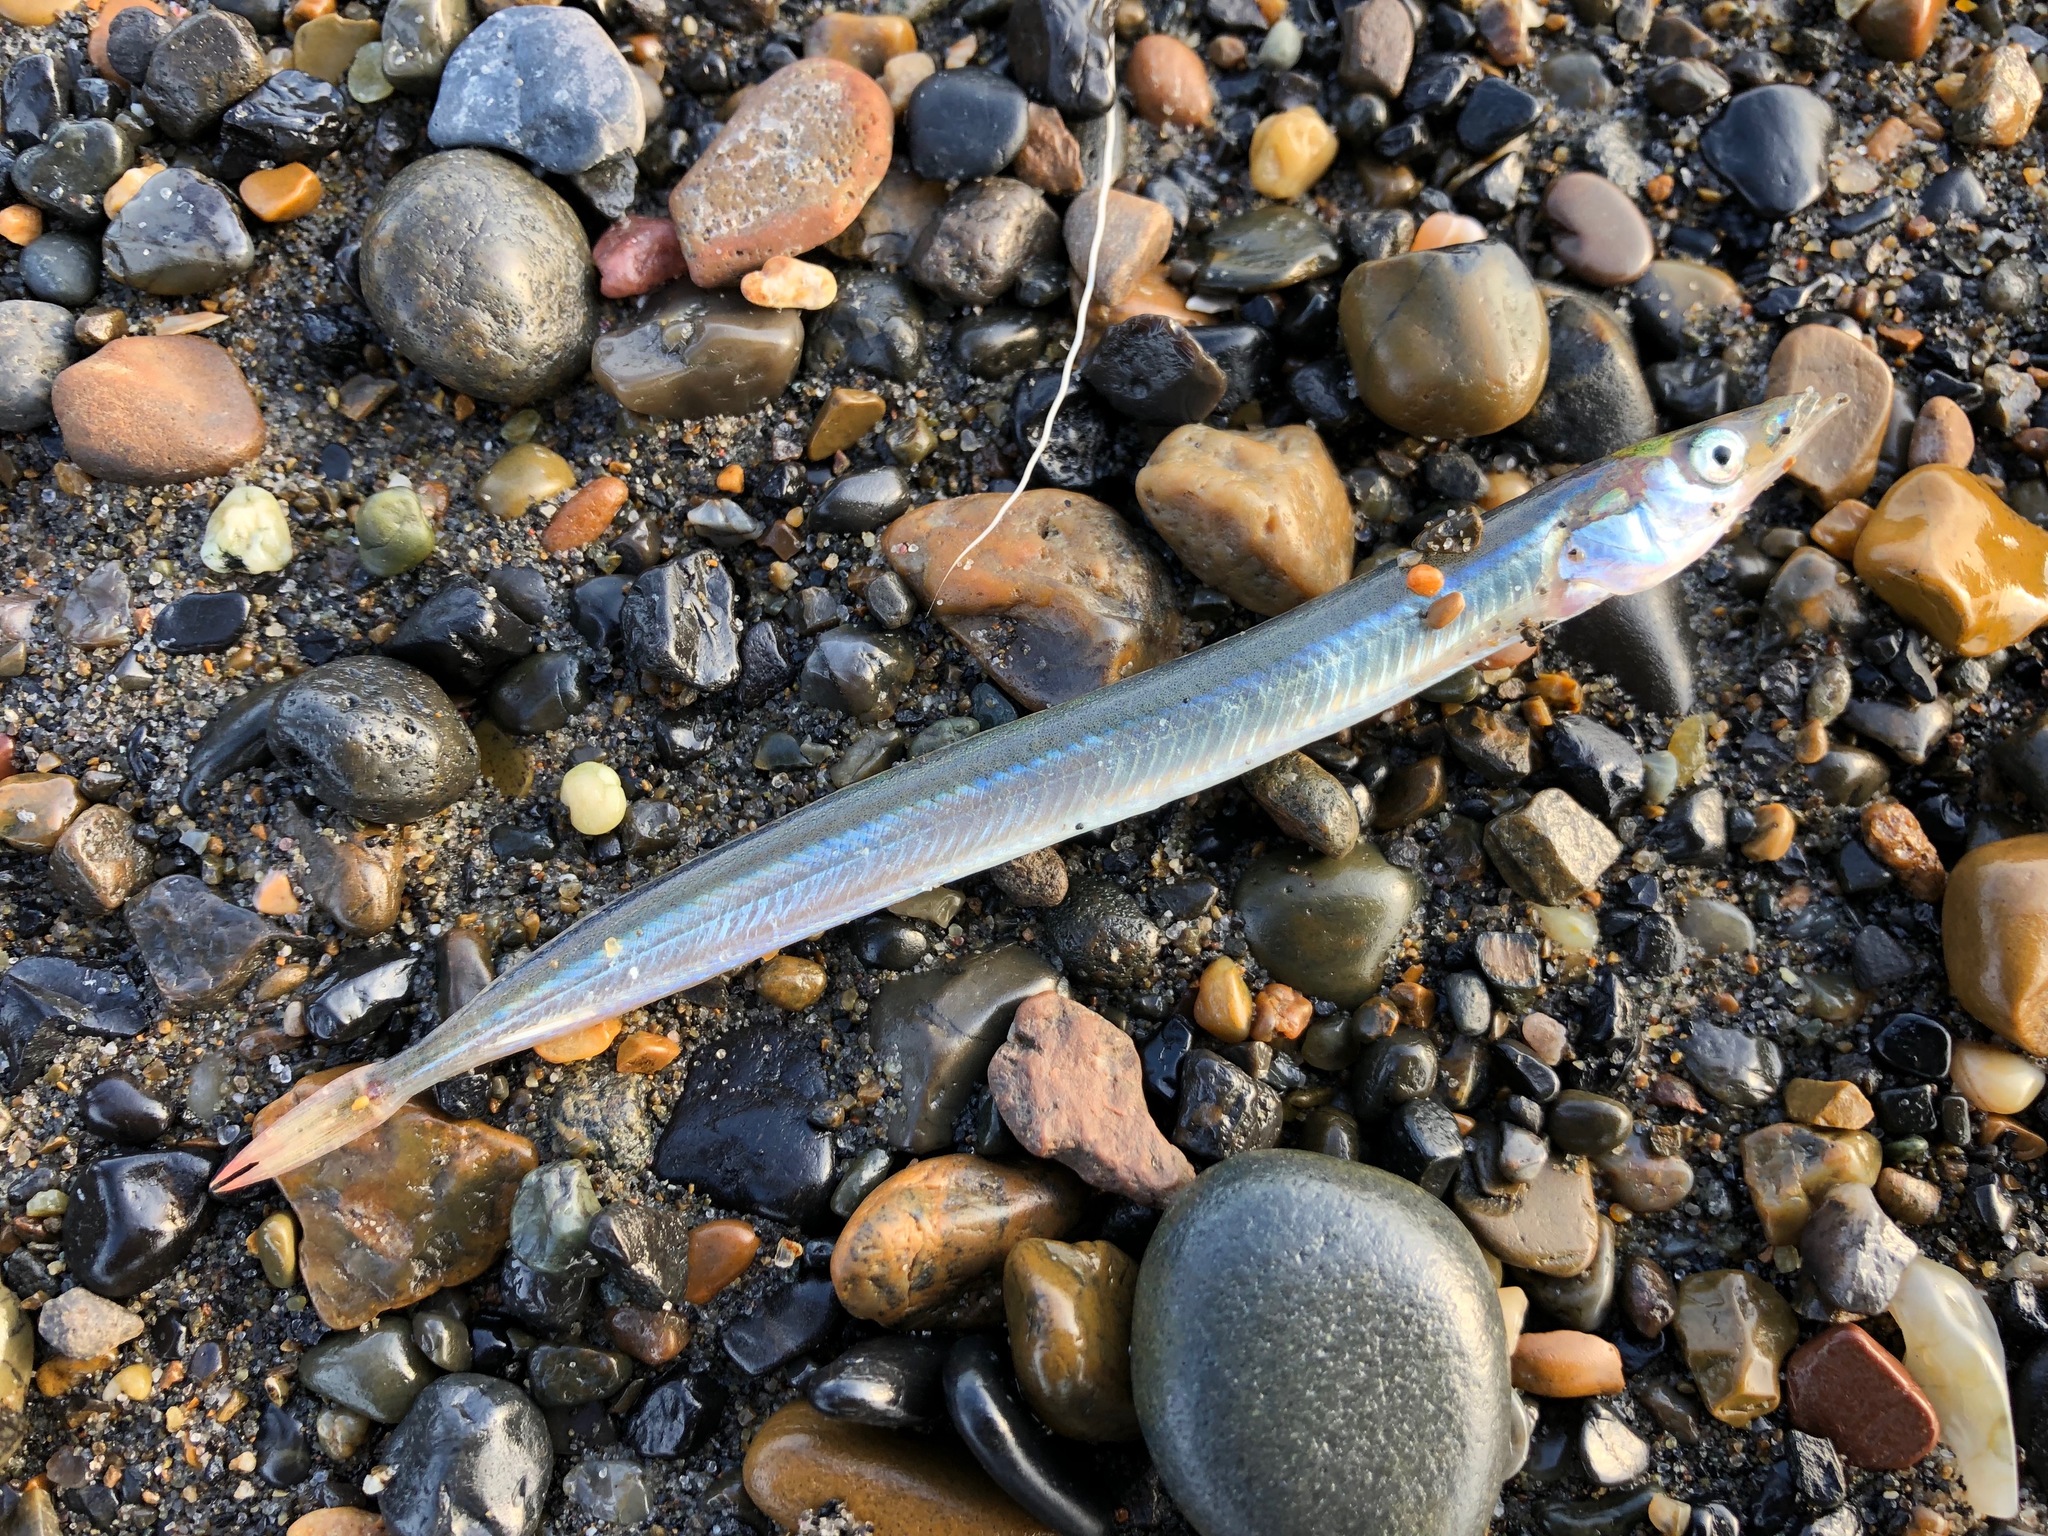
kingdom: Animalia
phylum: Chordata
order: Perciformes
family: Ammodytidae
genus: Ammodytes
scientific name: Ammodytes hexapterus
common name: Pacific sand lance
